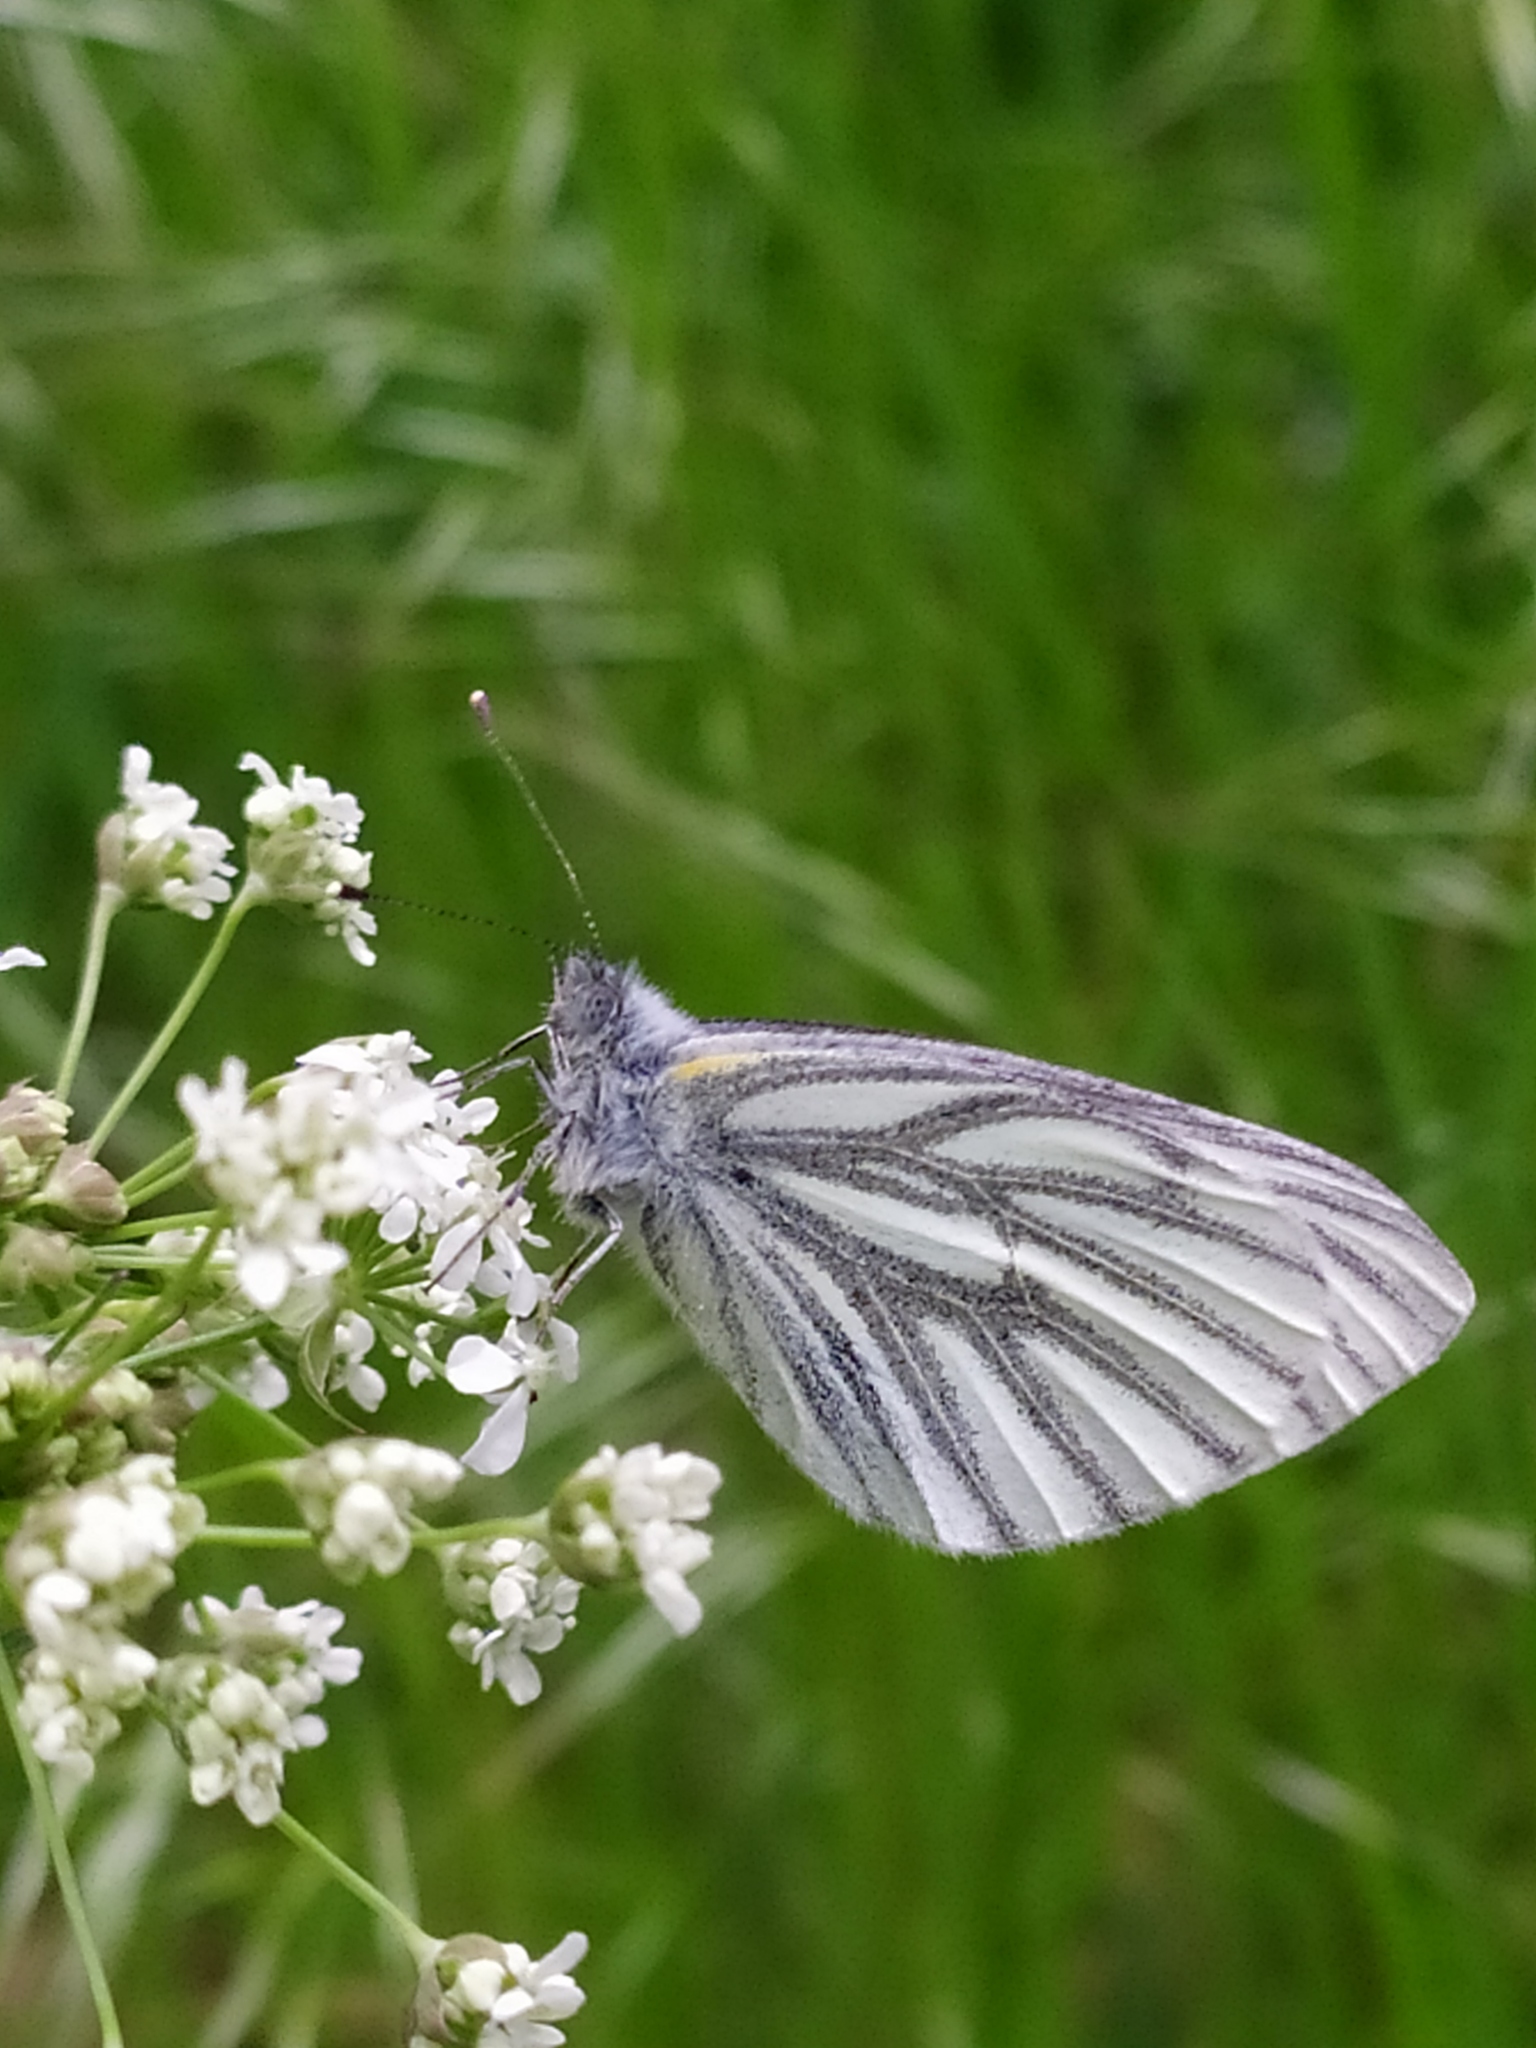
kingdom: Animalia
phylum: Arthropoda
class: Insecta
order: Lepidoptera
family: Pieridae
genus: Pieris
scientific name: Pieris napi
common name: Green-veined white
